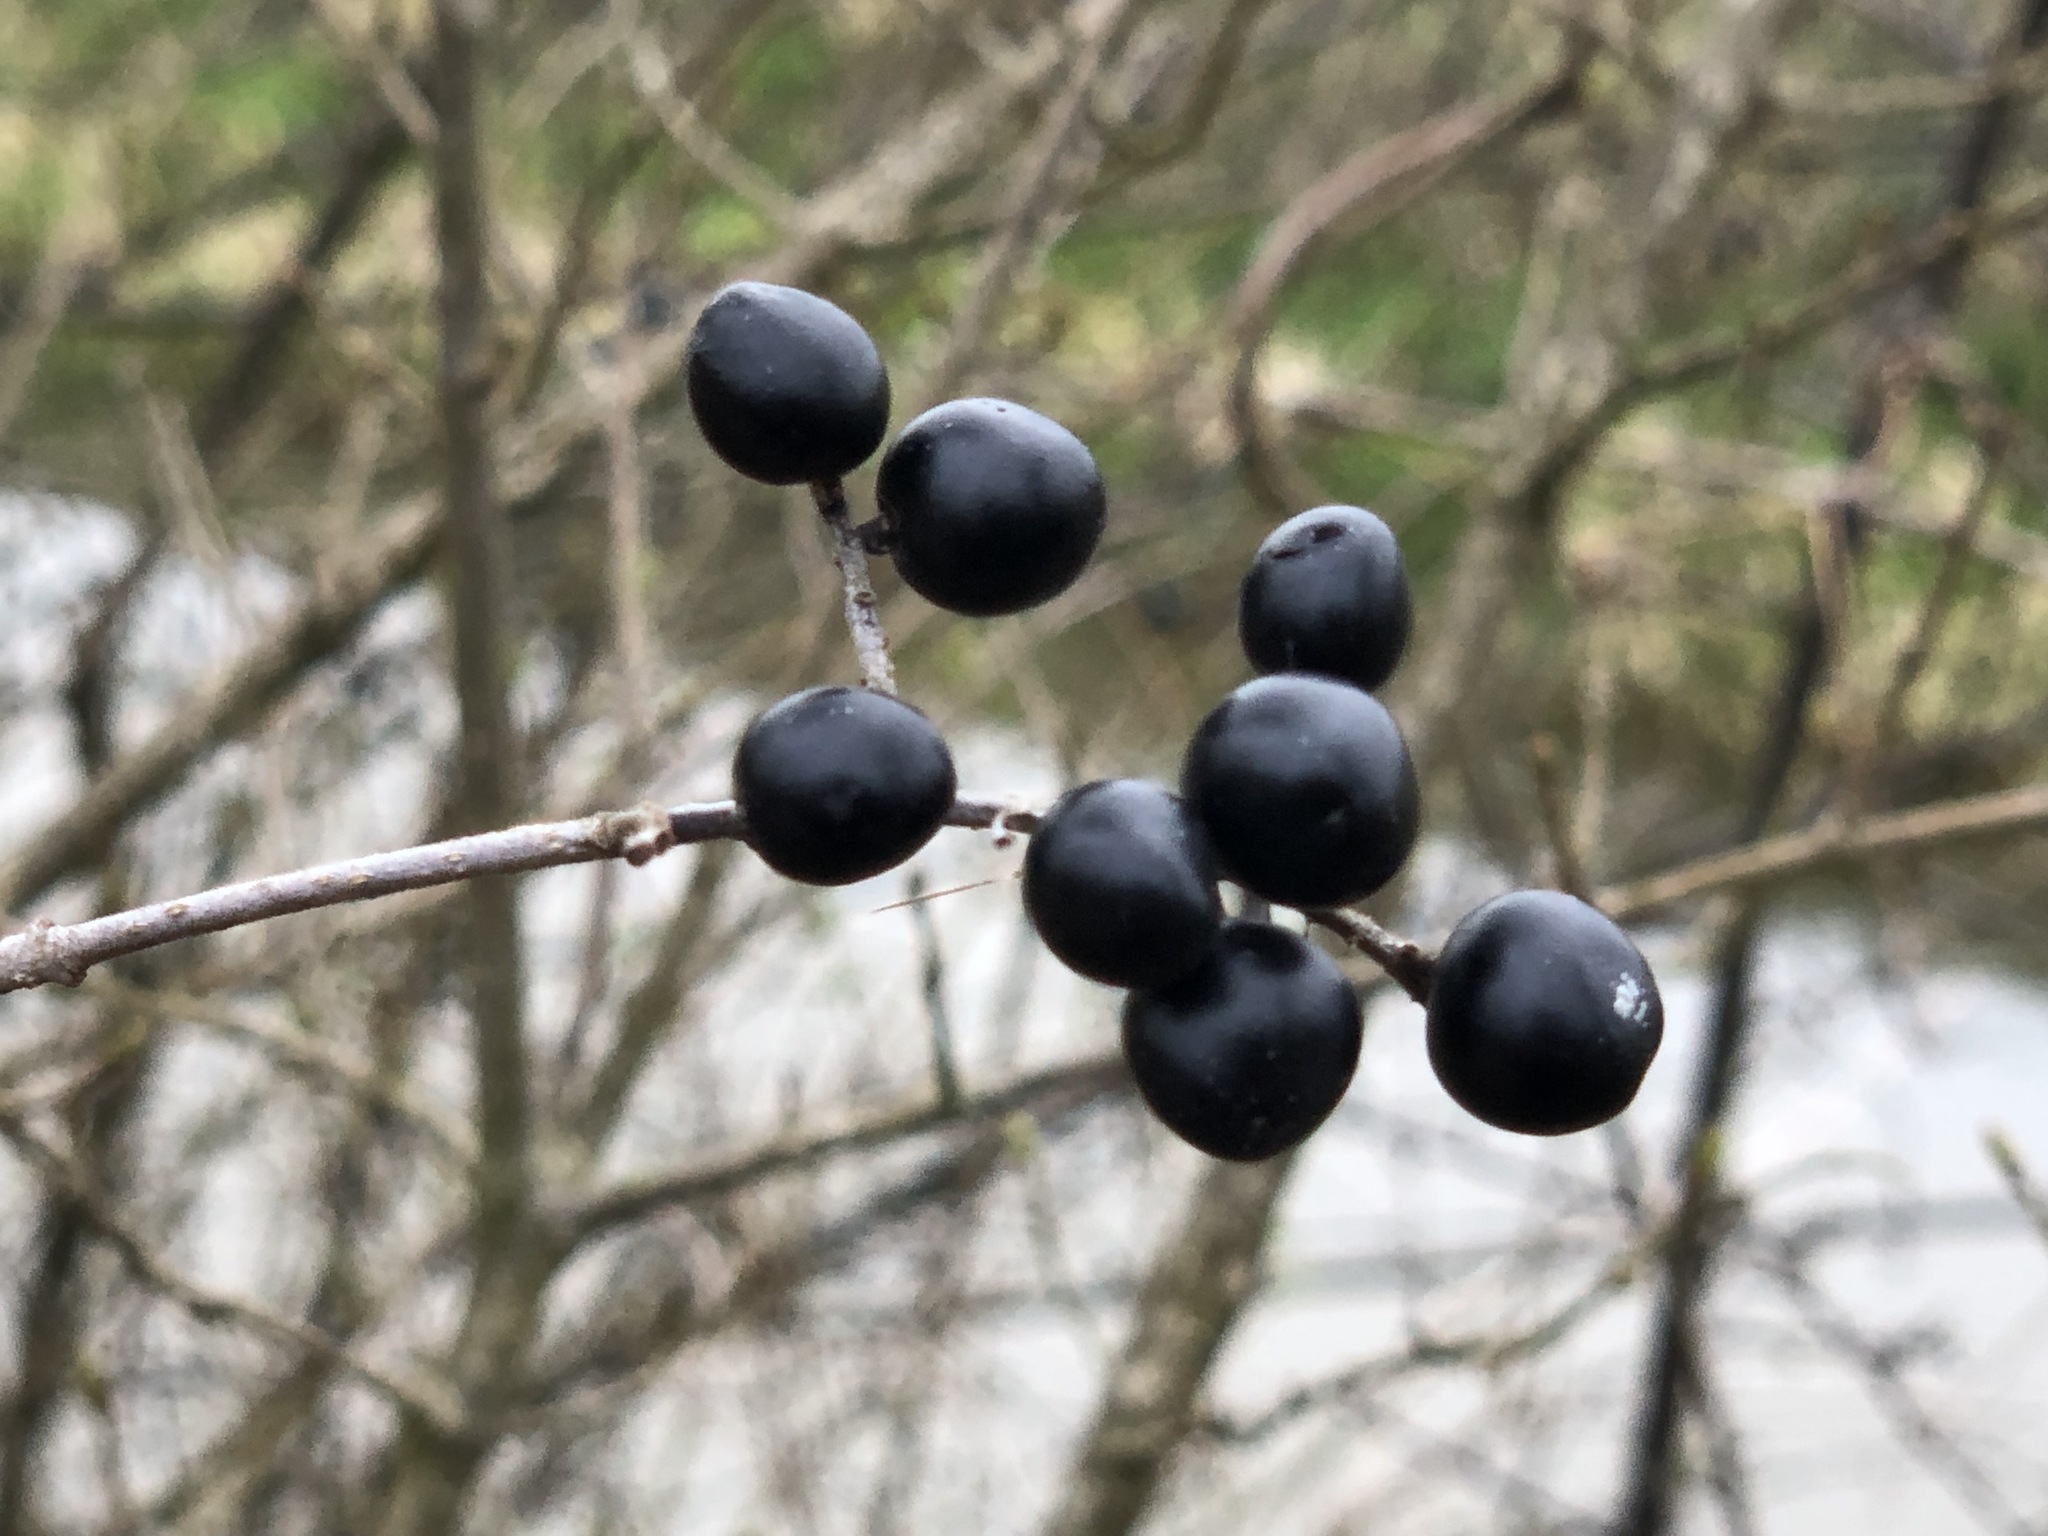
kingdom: Plantae
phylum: Tracheophyta
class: Magnoliopsida
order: Lamiales
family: Oleaceae
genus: Ligustrum
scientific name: Ligustrum vulgare
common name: Wild privet
